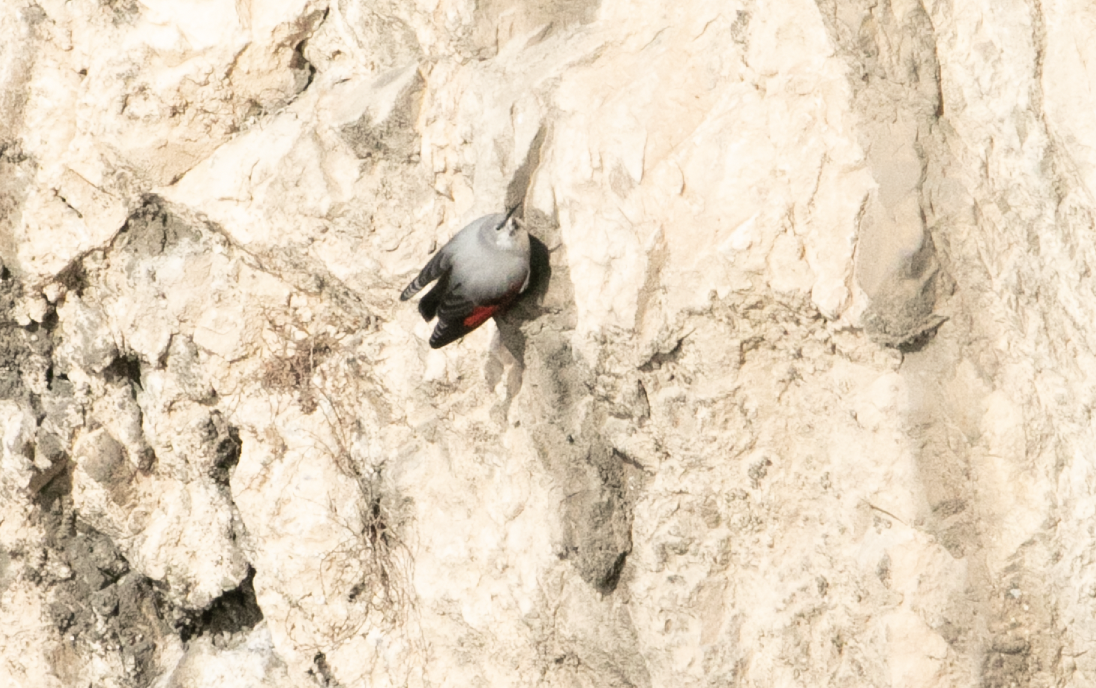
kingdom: Animalia
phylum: Chordata
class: Aves
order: Passeriformes
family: Tichodromidae
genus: Tichodroma
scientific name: Tichodroma muraria
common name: Wallcreeper
